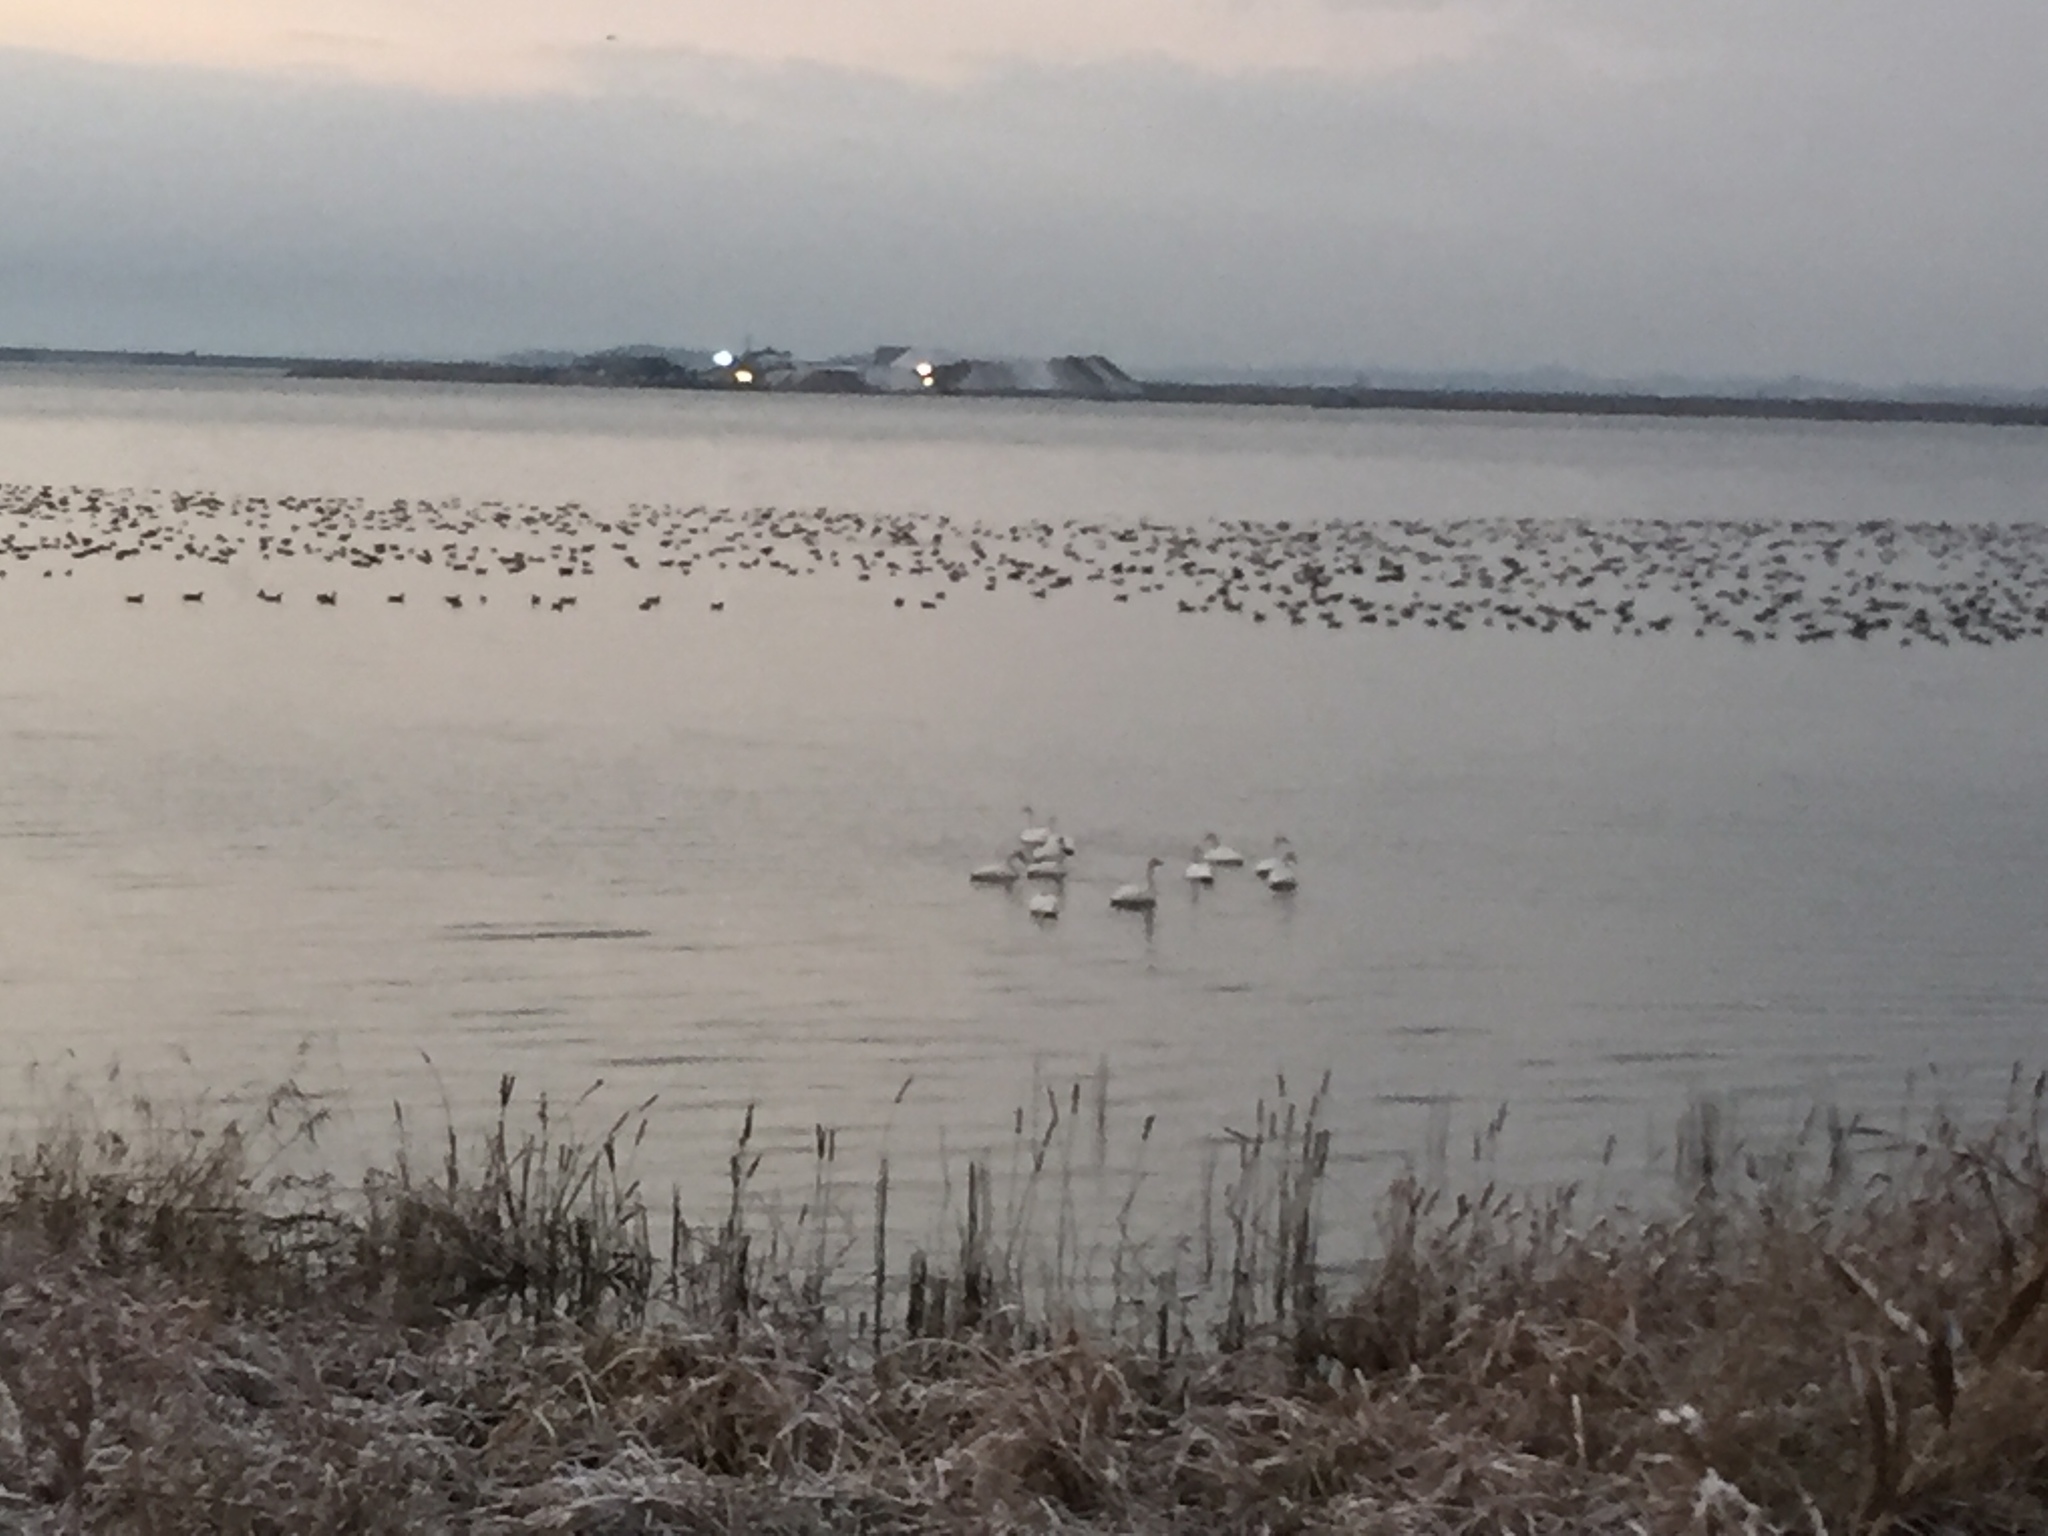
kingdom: Animalia
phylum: Chordata
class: Aves
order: Anseriformes
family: Anatidae
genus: Cygnus
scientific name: Cygnus cygnus
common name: Whooper swan
